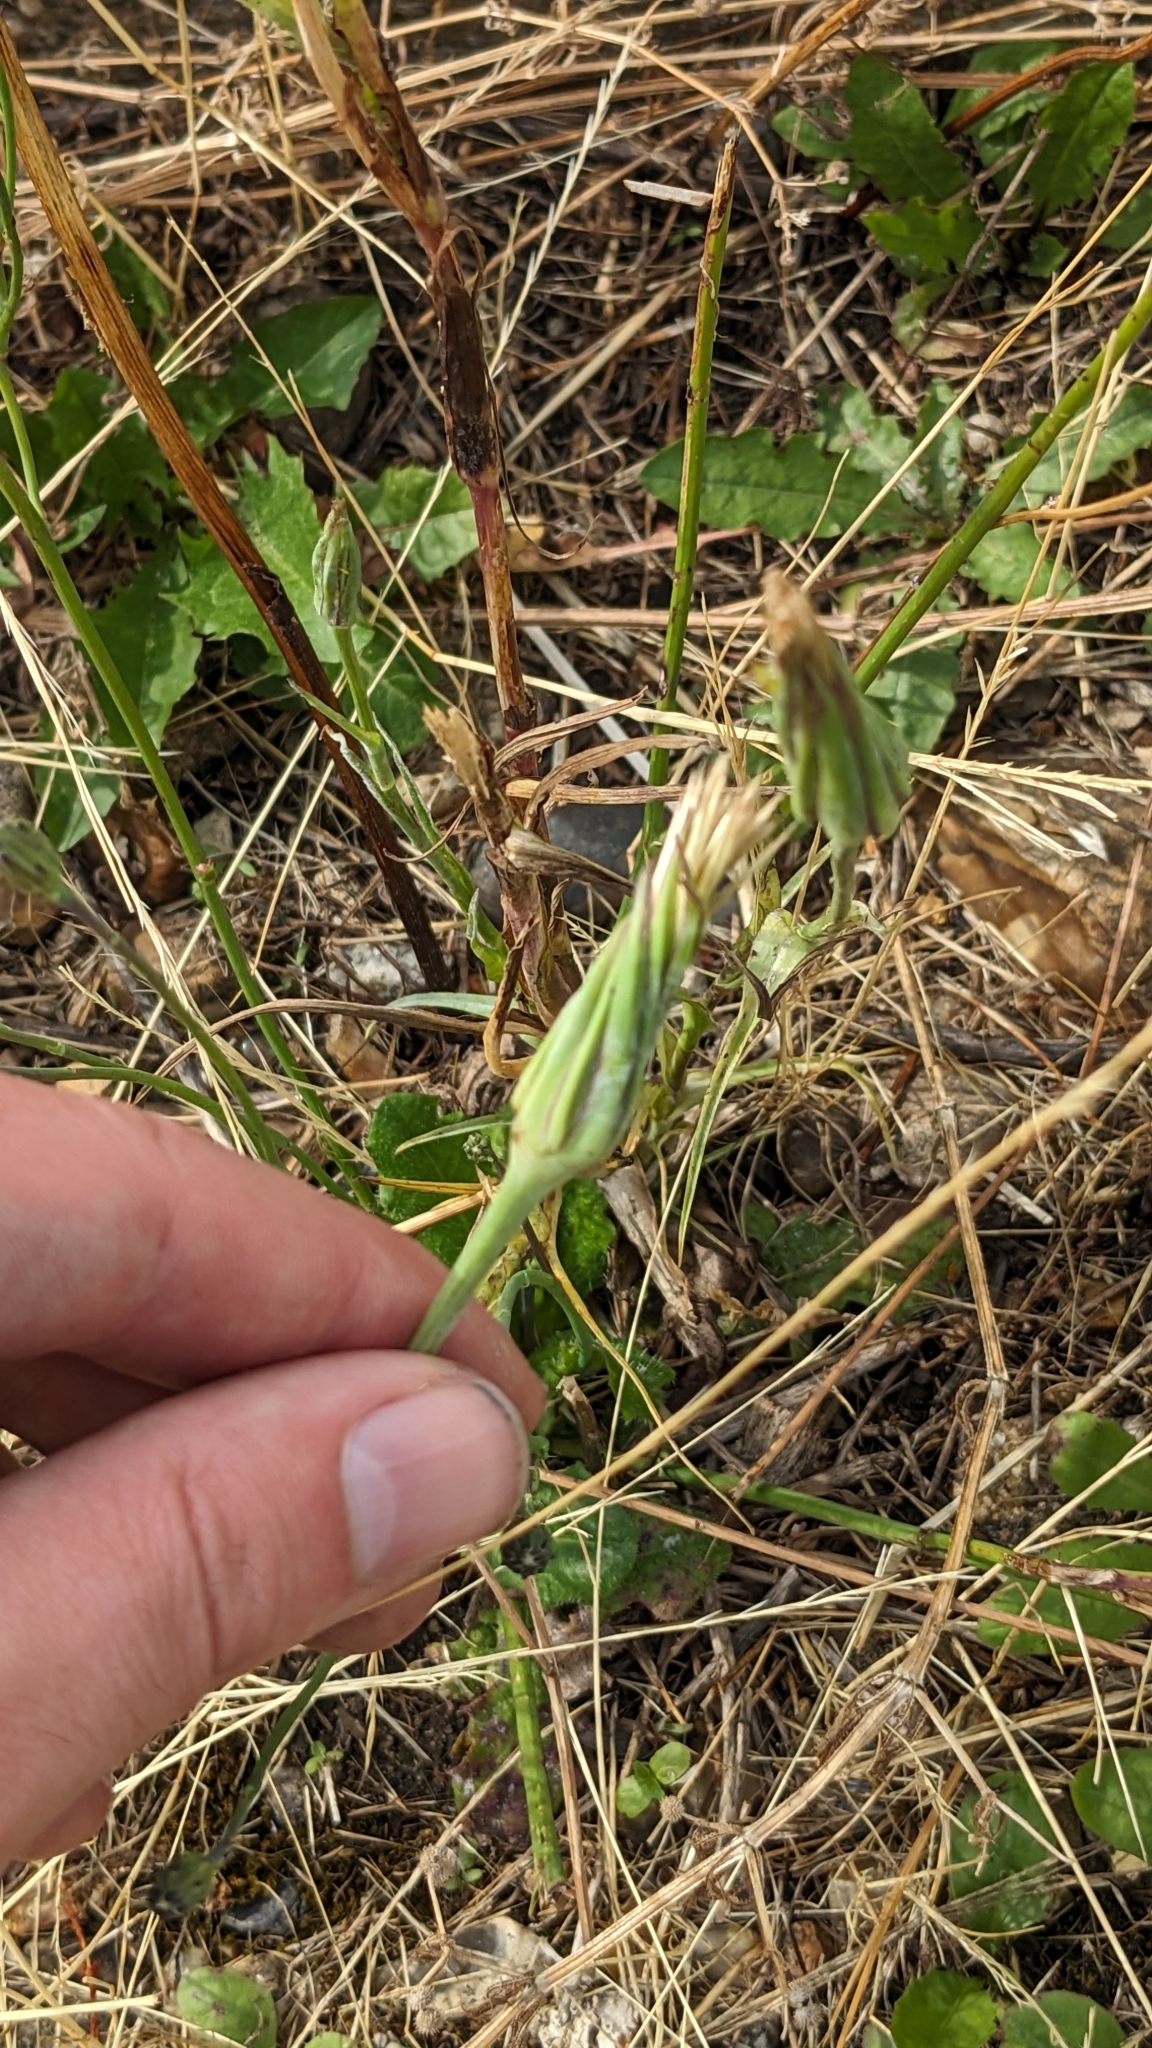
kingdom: Plantae
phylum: Tracheophyta
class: Magnoliopsida
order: Asterales
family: Asteraceae
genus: Tragopogon
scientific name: Tragopogon pratensis
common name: Goat's-beard
